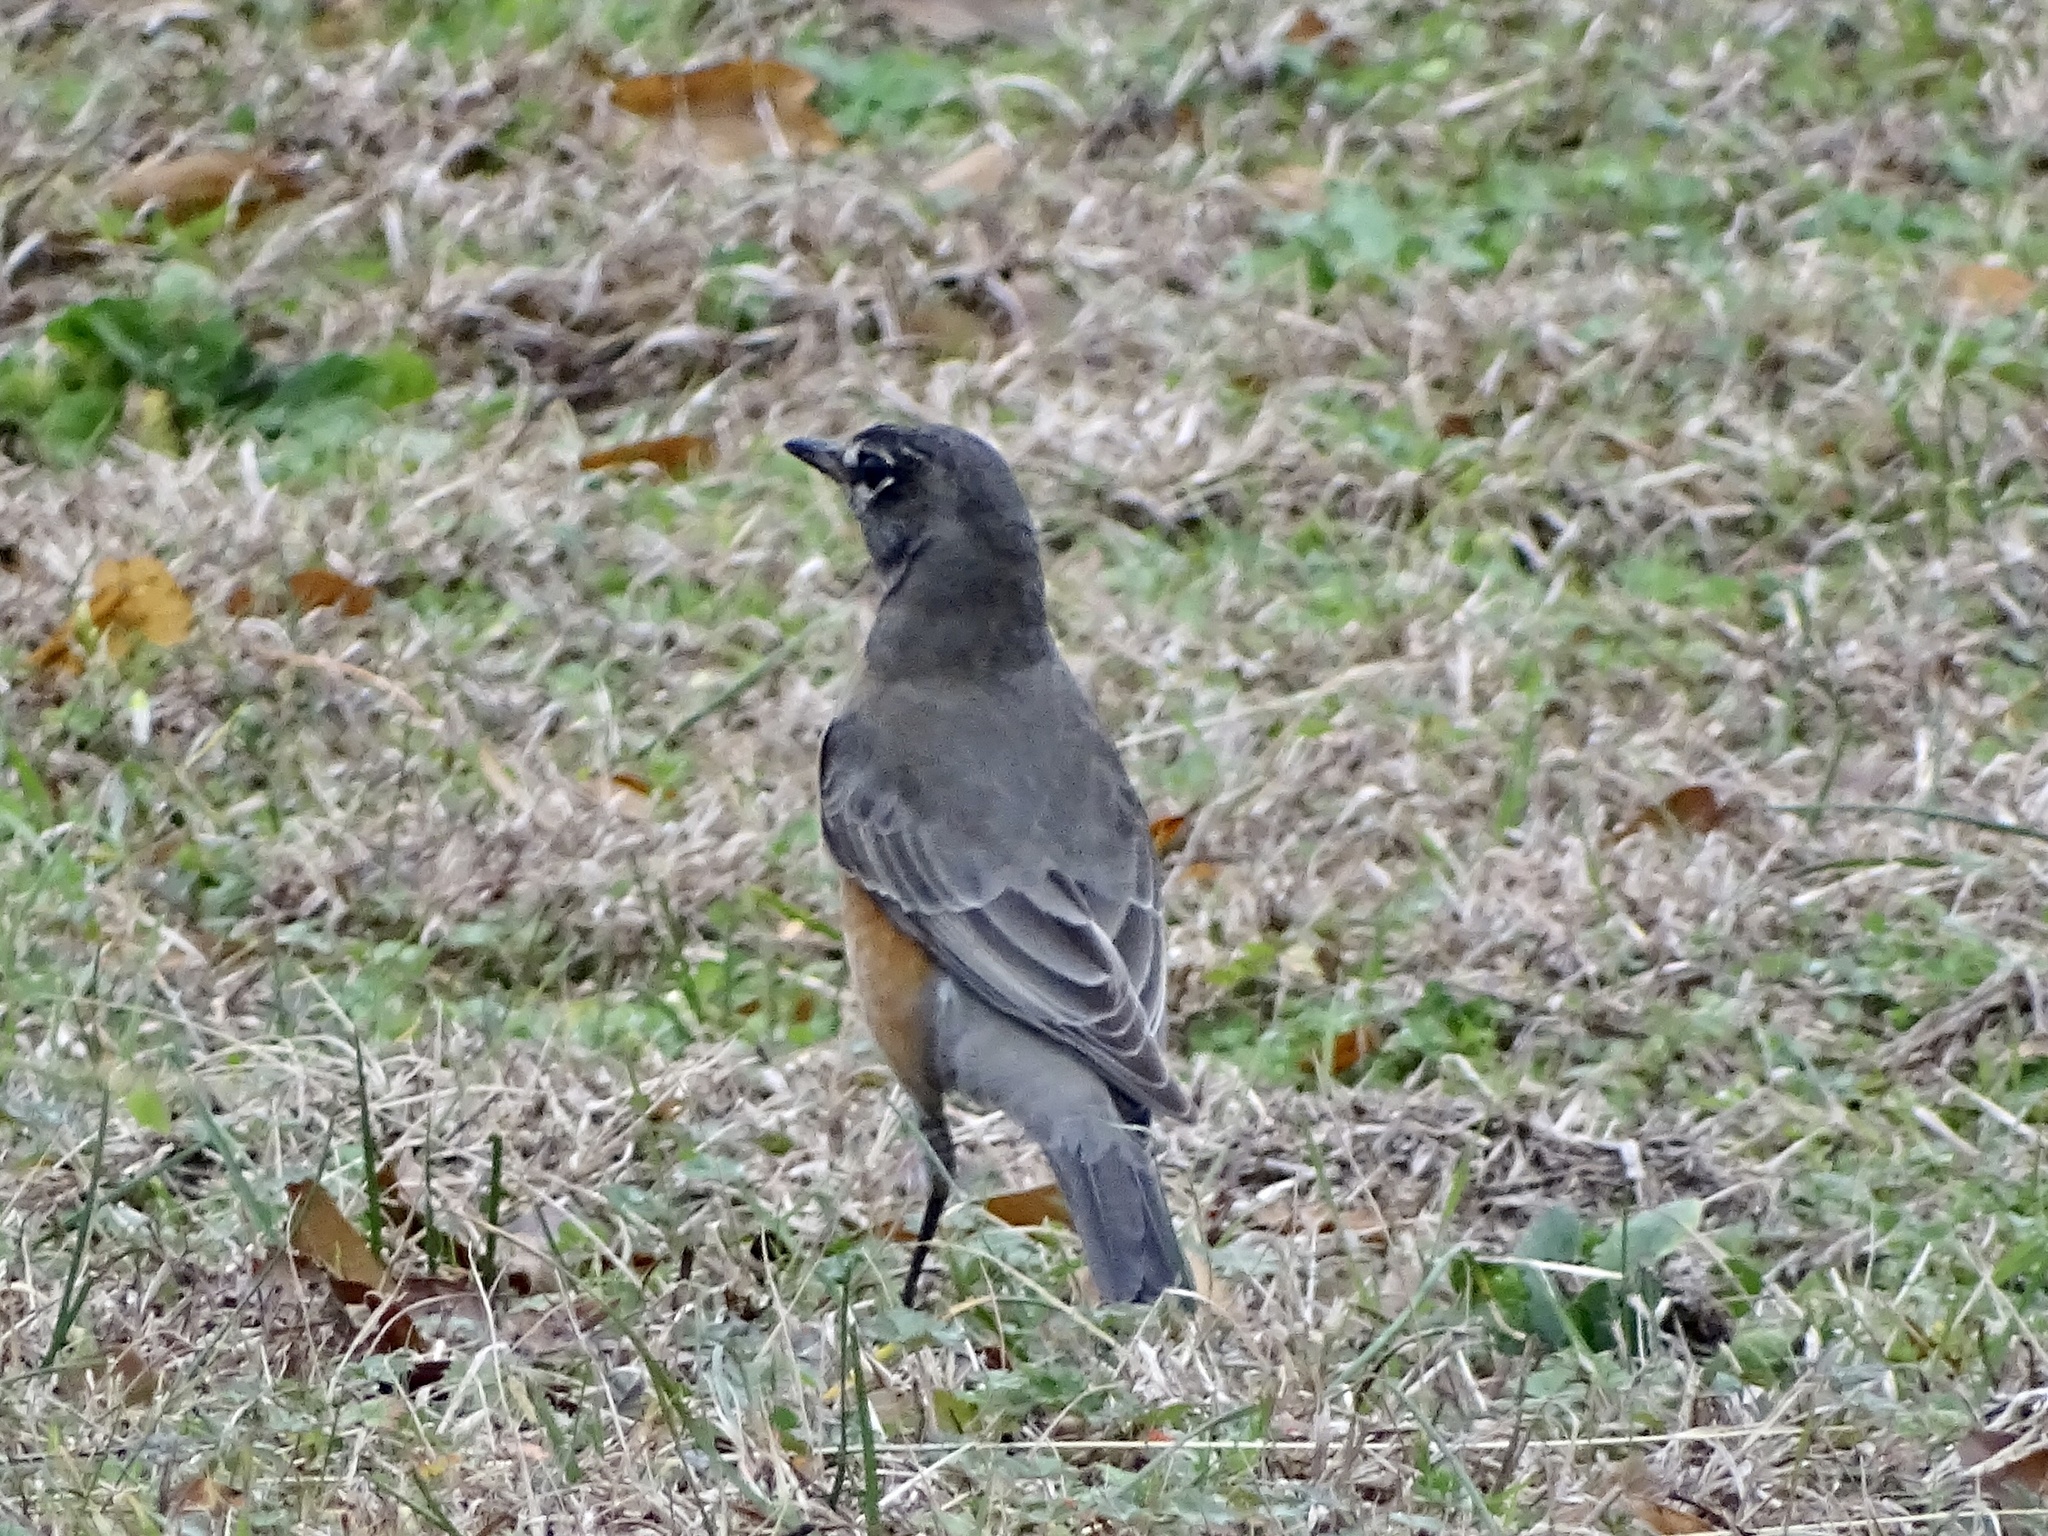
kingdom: Animalia
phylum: Chordata
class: Aves
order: Passeriformes
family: Turdidae
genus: Turdus
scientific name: Turdus migratorius
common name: American robin
